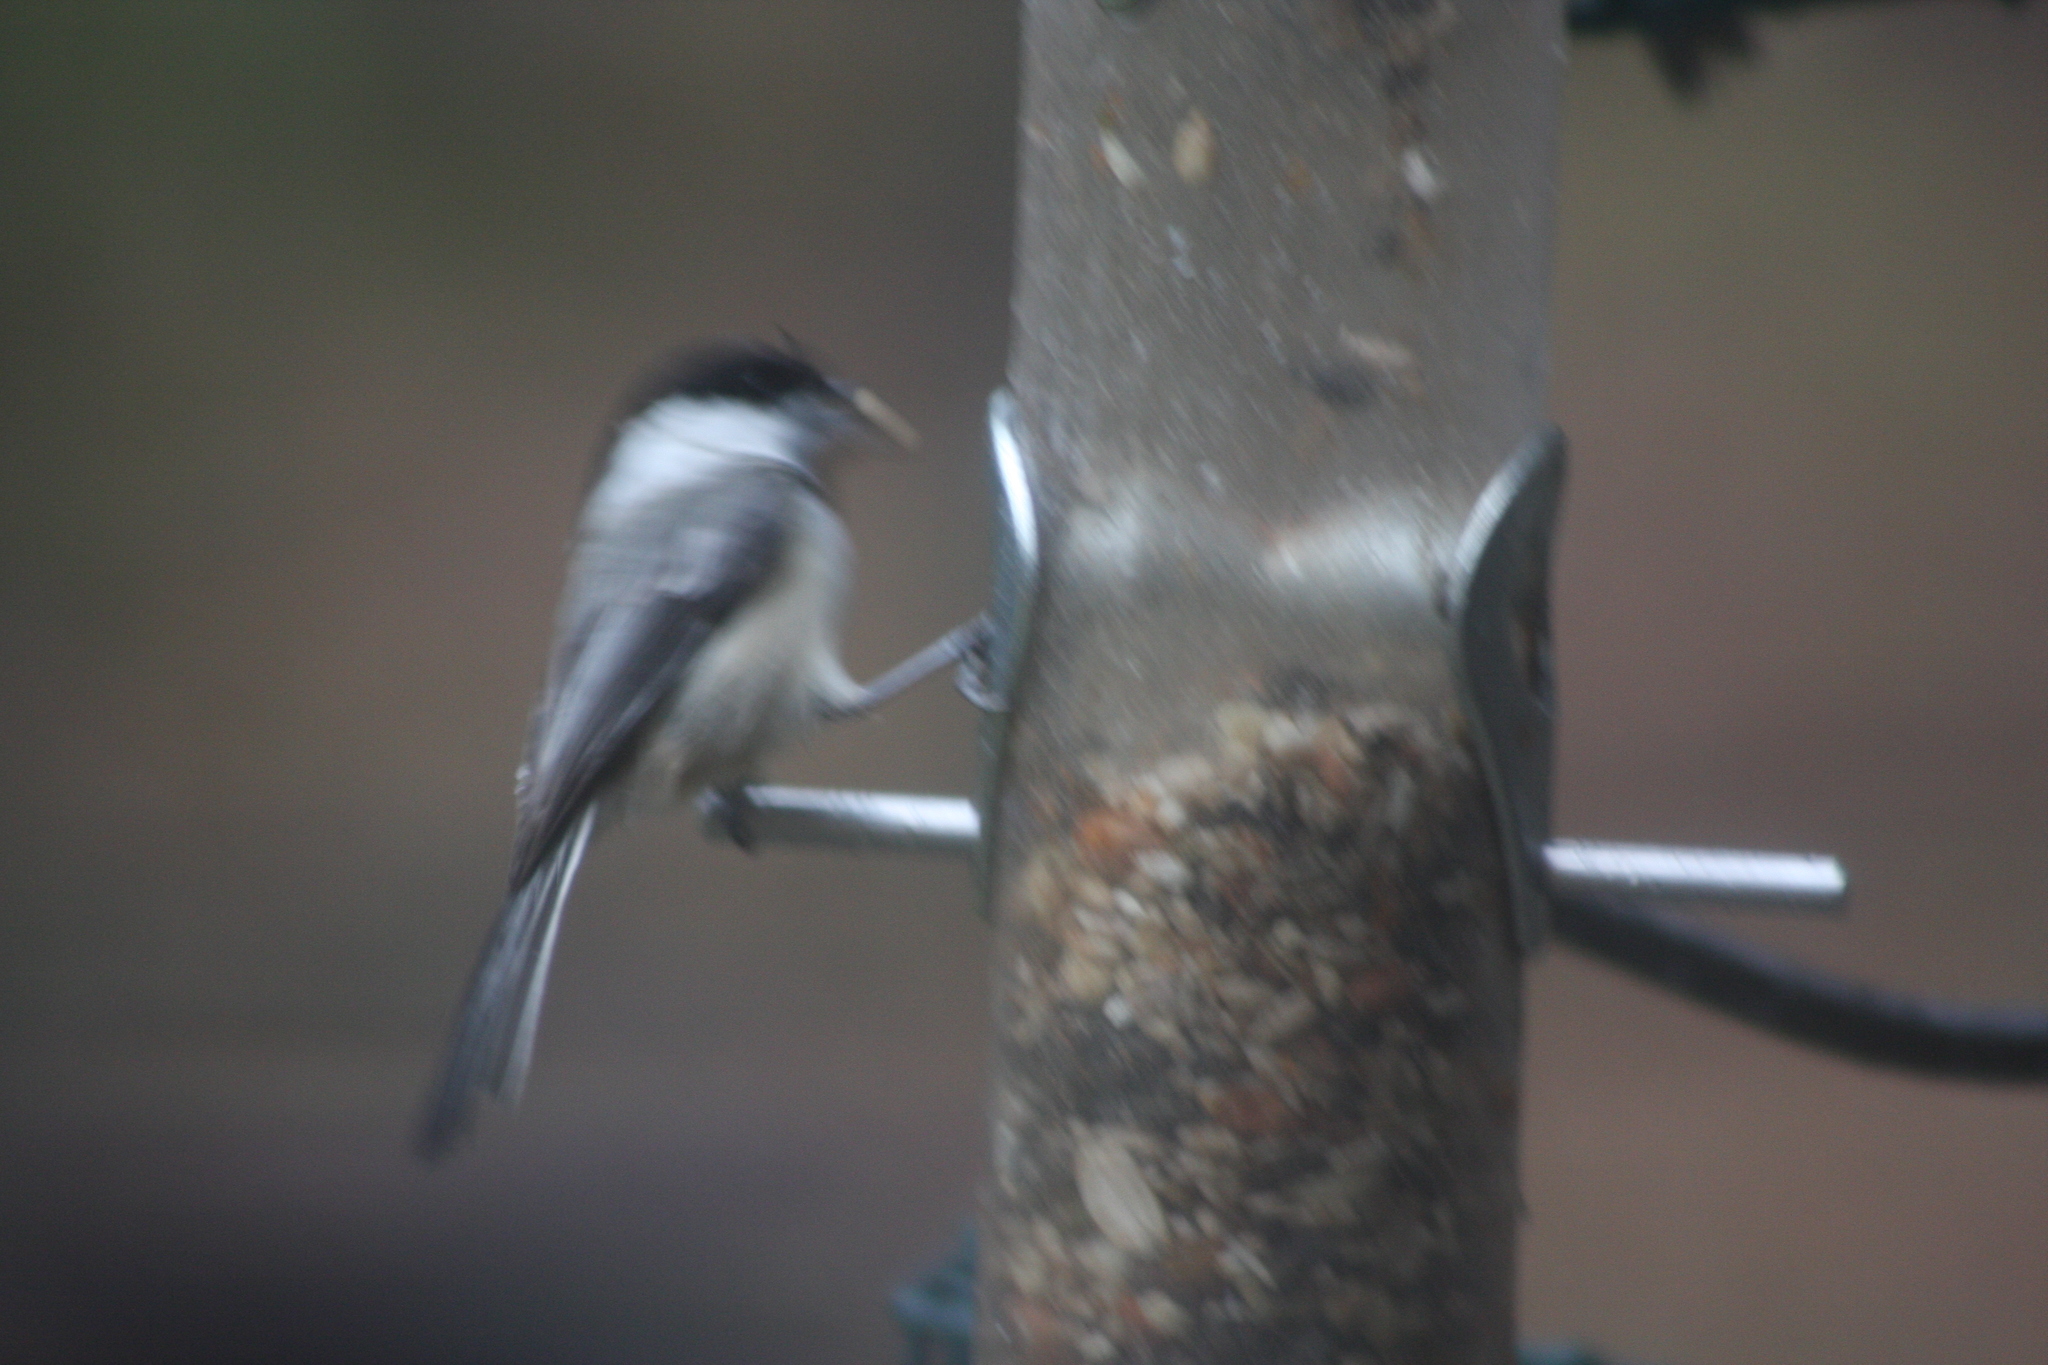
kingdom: Animalia
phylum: Chordata
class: Aves
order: Passeriformes
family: Paridae
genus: Poecile
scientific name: Poecile atricapillus
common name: Black-capped chickadee
